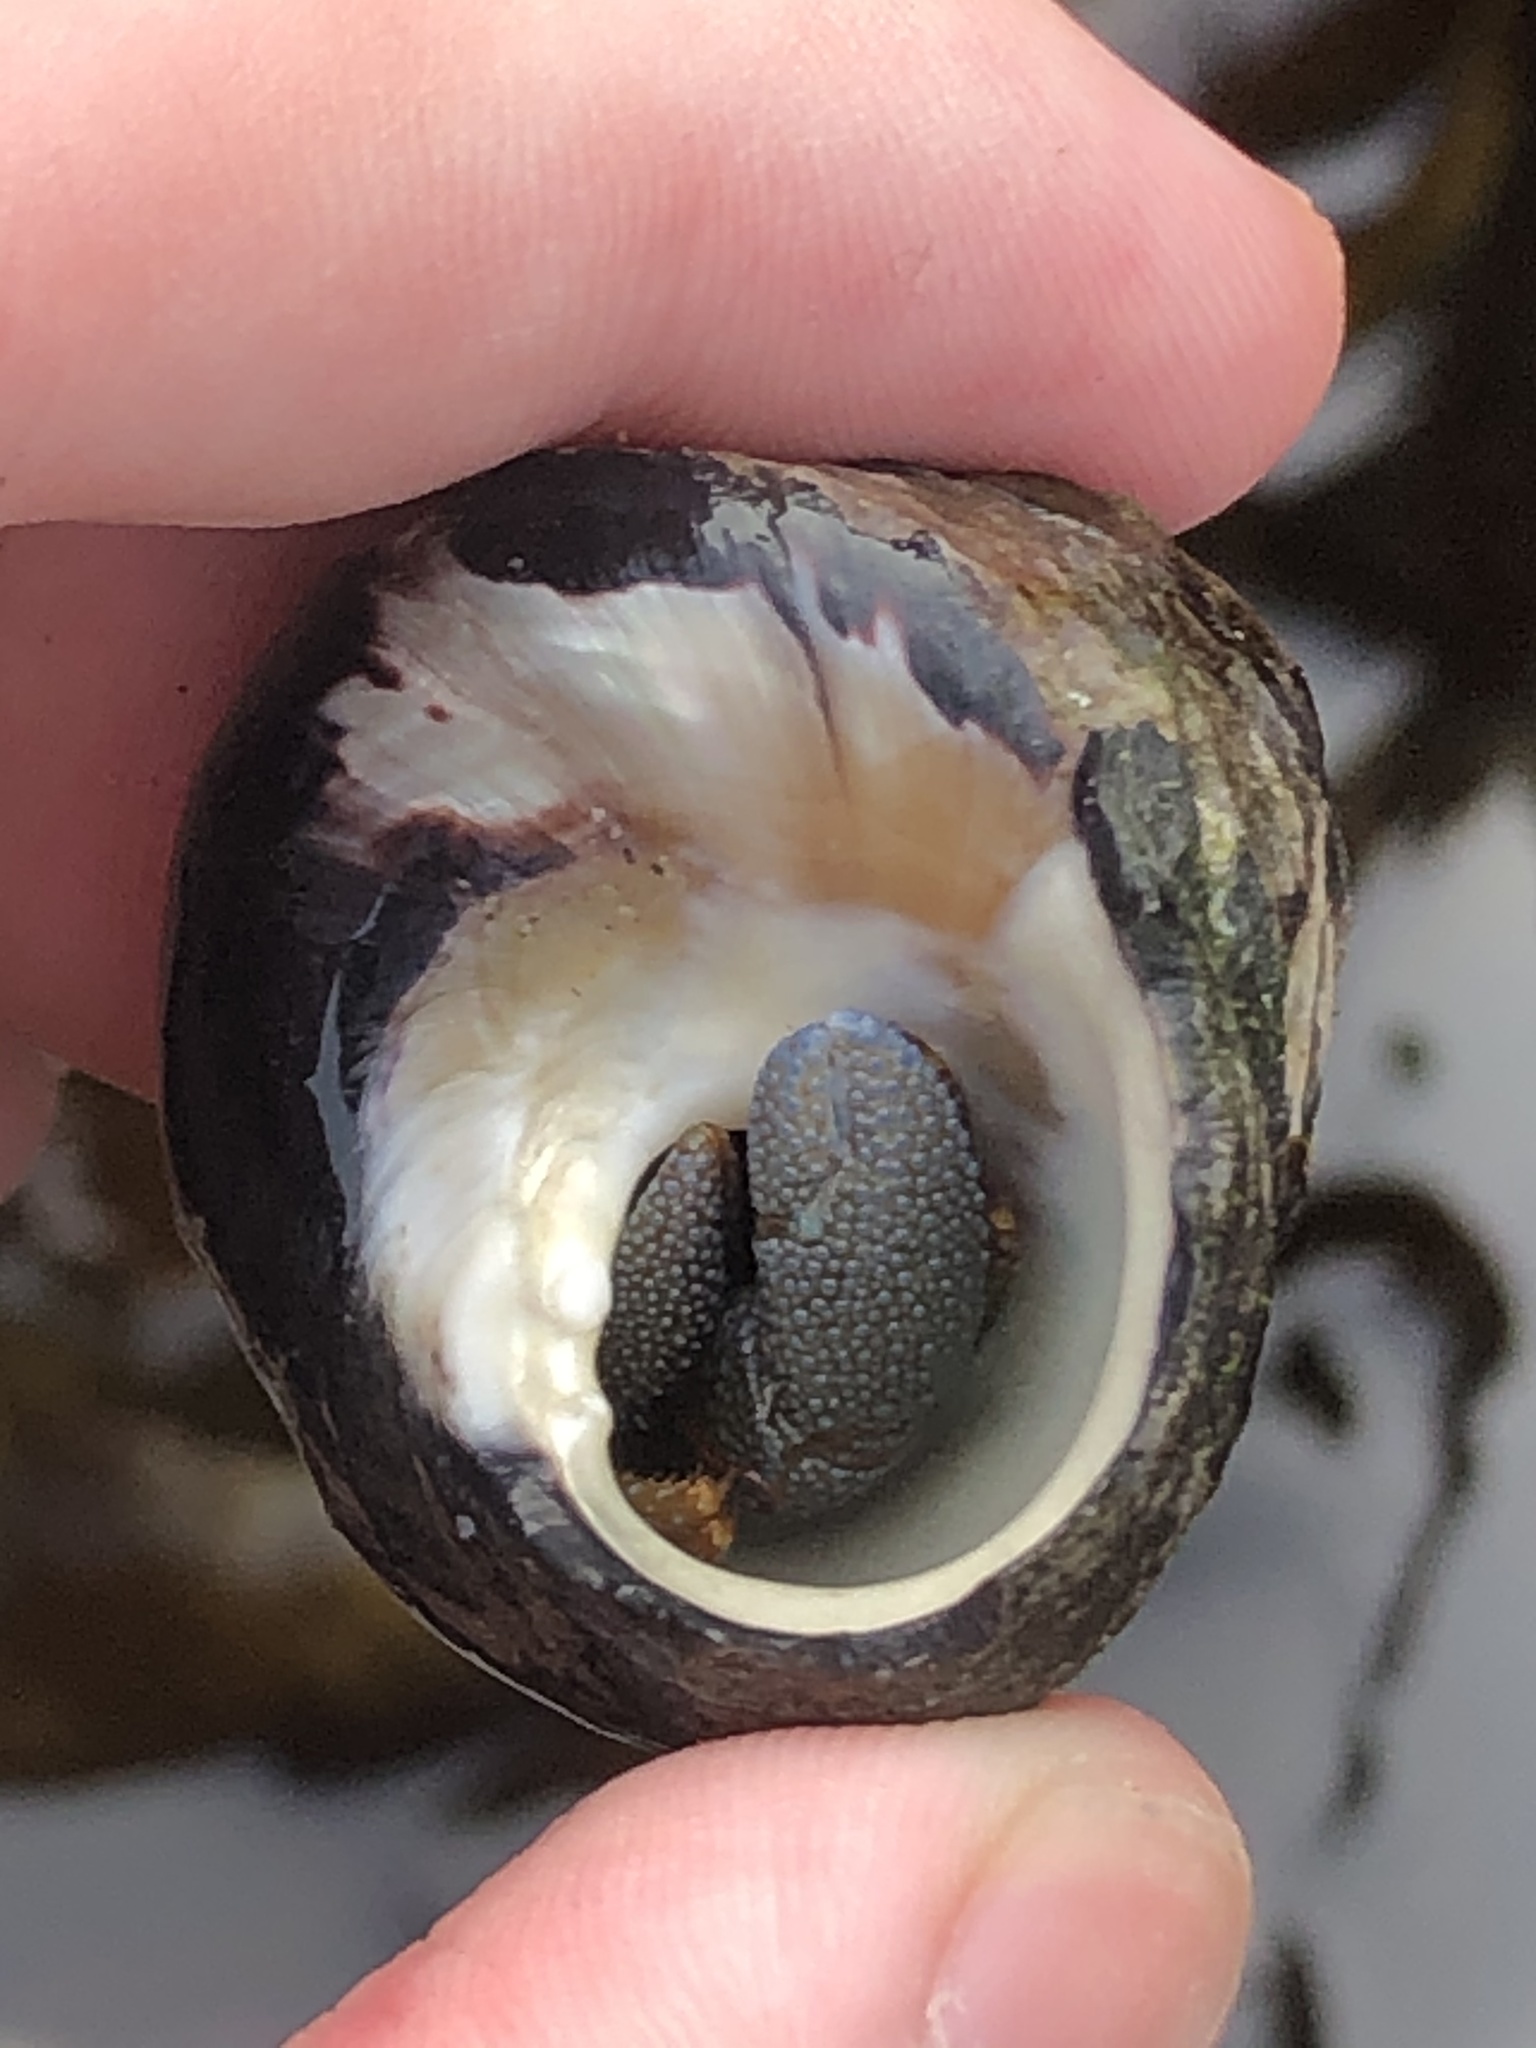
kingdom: Animalia
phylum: Arthropoda
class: Malacostraca
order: Decapoda
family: Paguridae
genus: Pagurus
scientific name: Pagurus granosimanus
